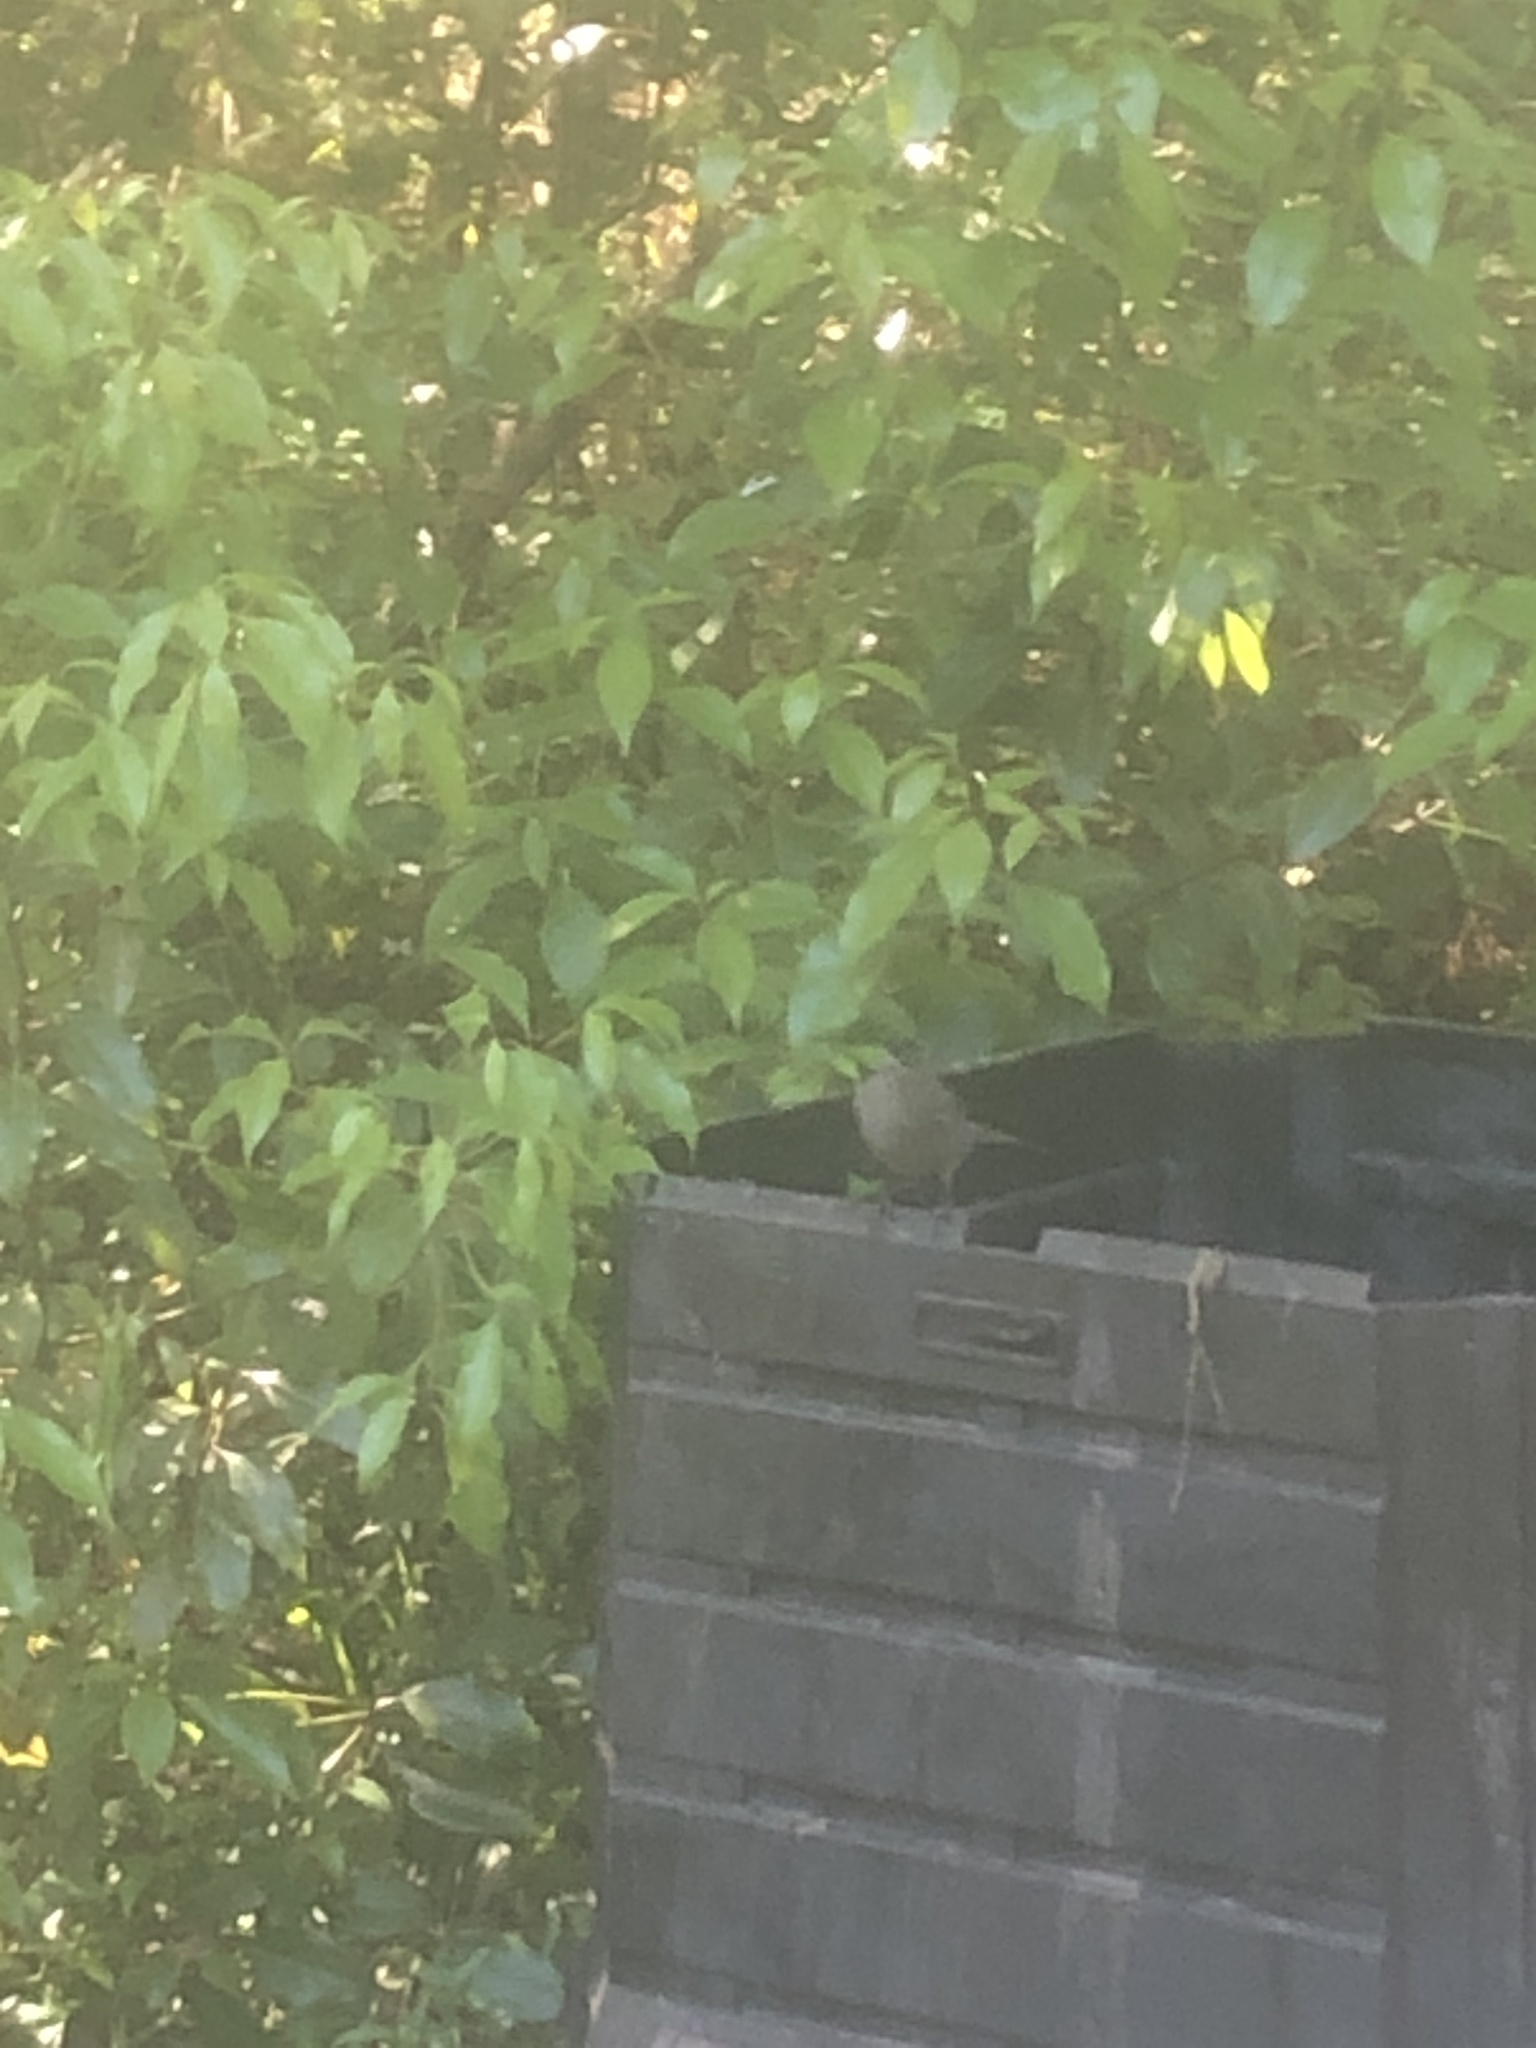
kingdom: Animalia
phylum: Chordata
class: Aves
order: Passeriformes
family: Mimidae
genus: Dumetella
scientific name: Dumetella carolinensis
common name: Gray catbird
